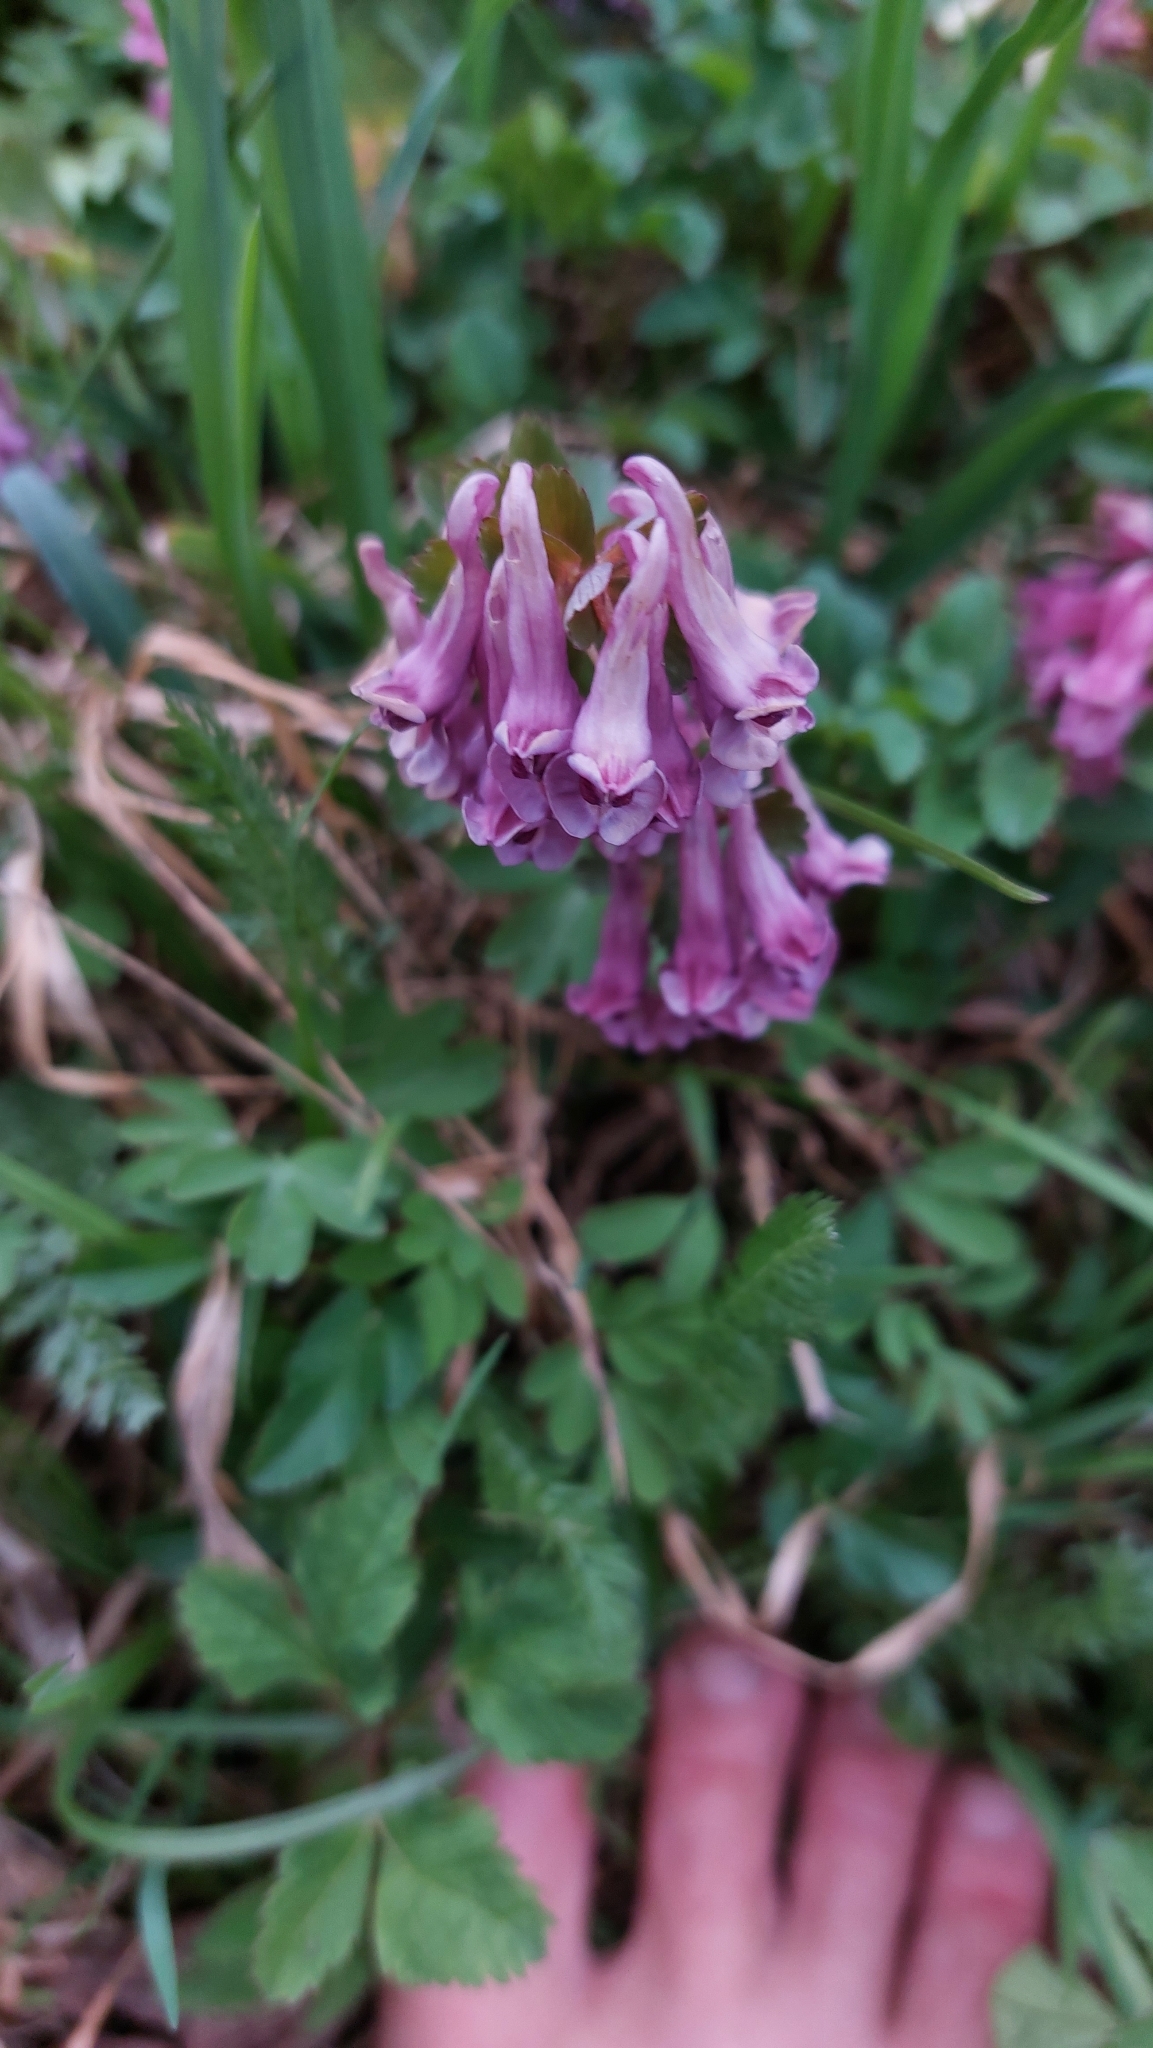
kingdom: Plantae
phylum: Tracheophyta
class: Magnoliopsida
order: Ranunculales
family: Papaveraceae
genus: Corydalis
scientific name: Corydalis solida
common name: Bird-in-a-bush
